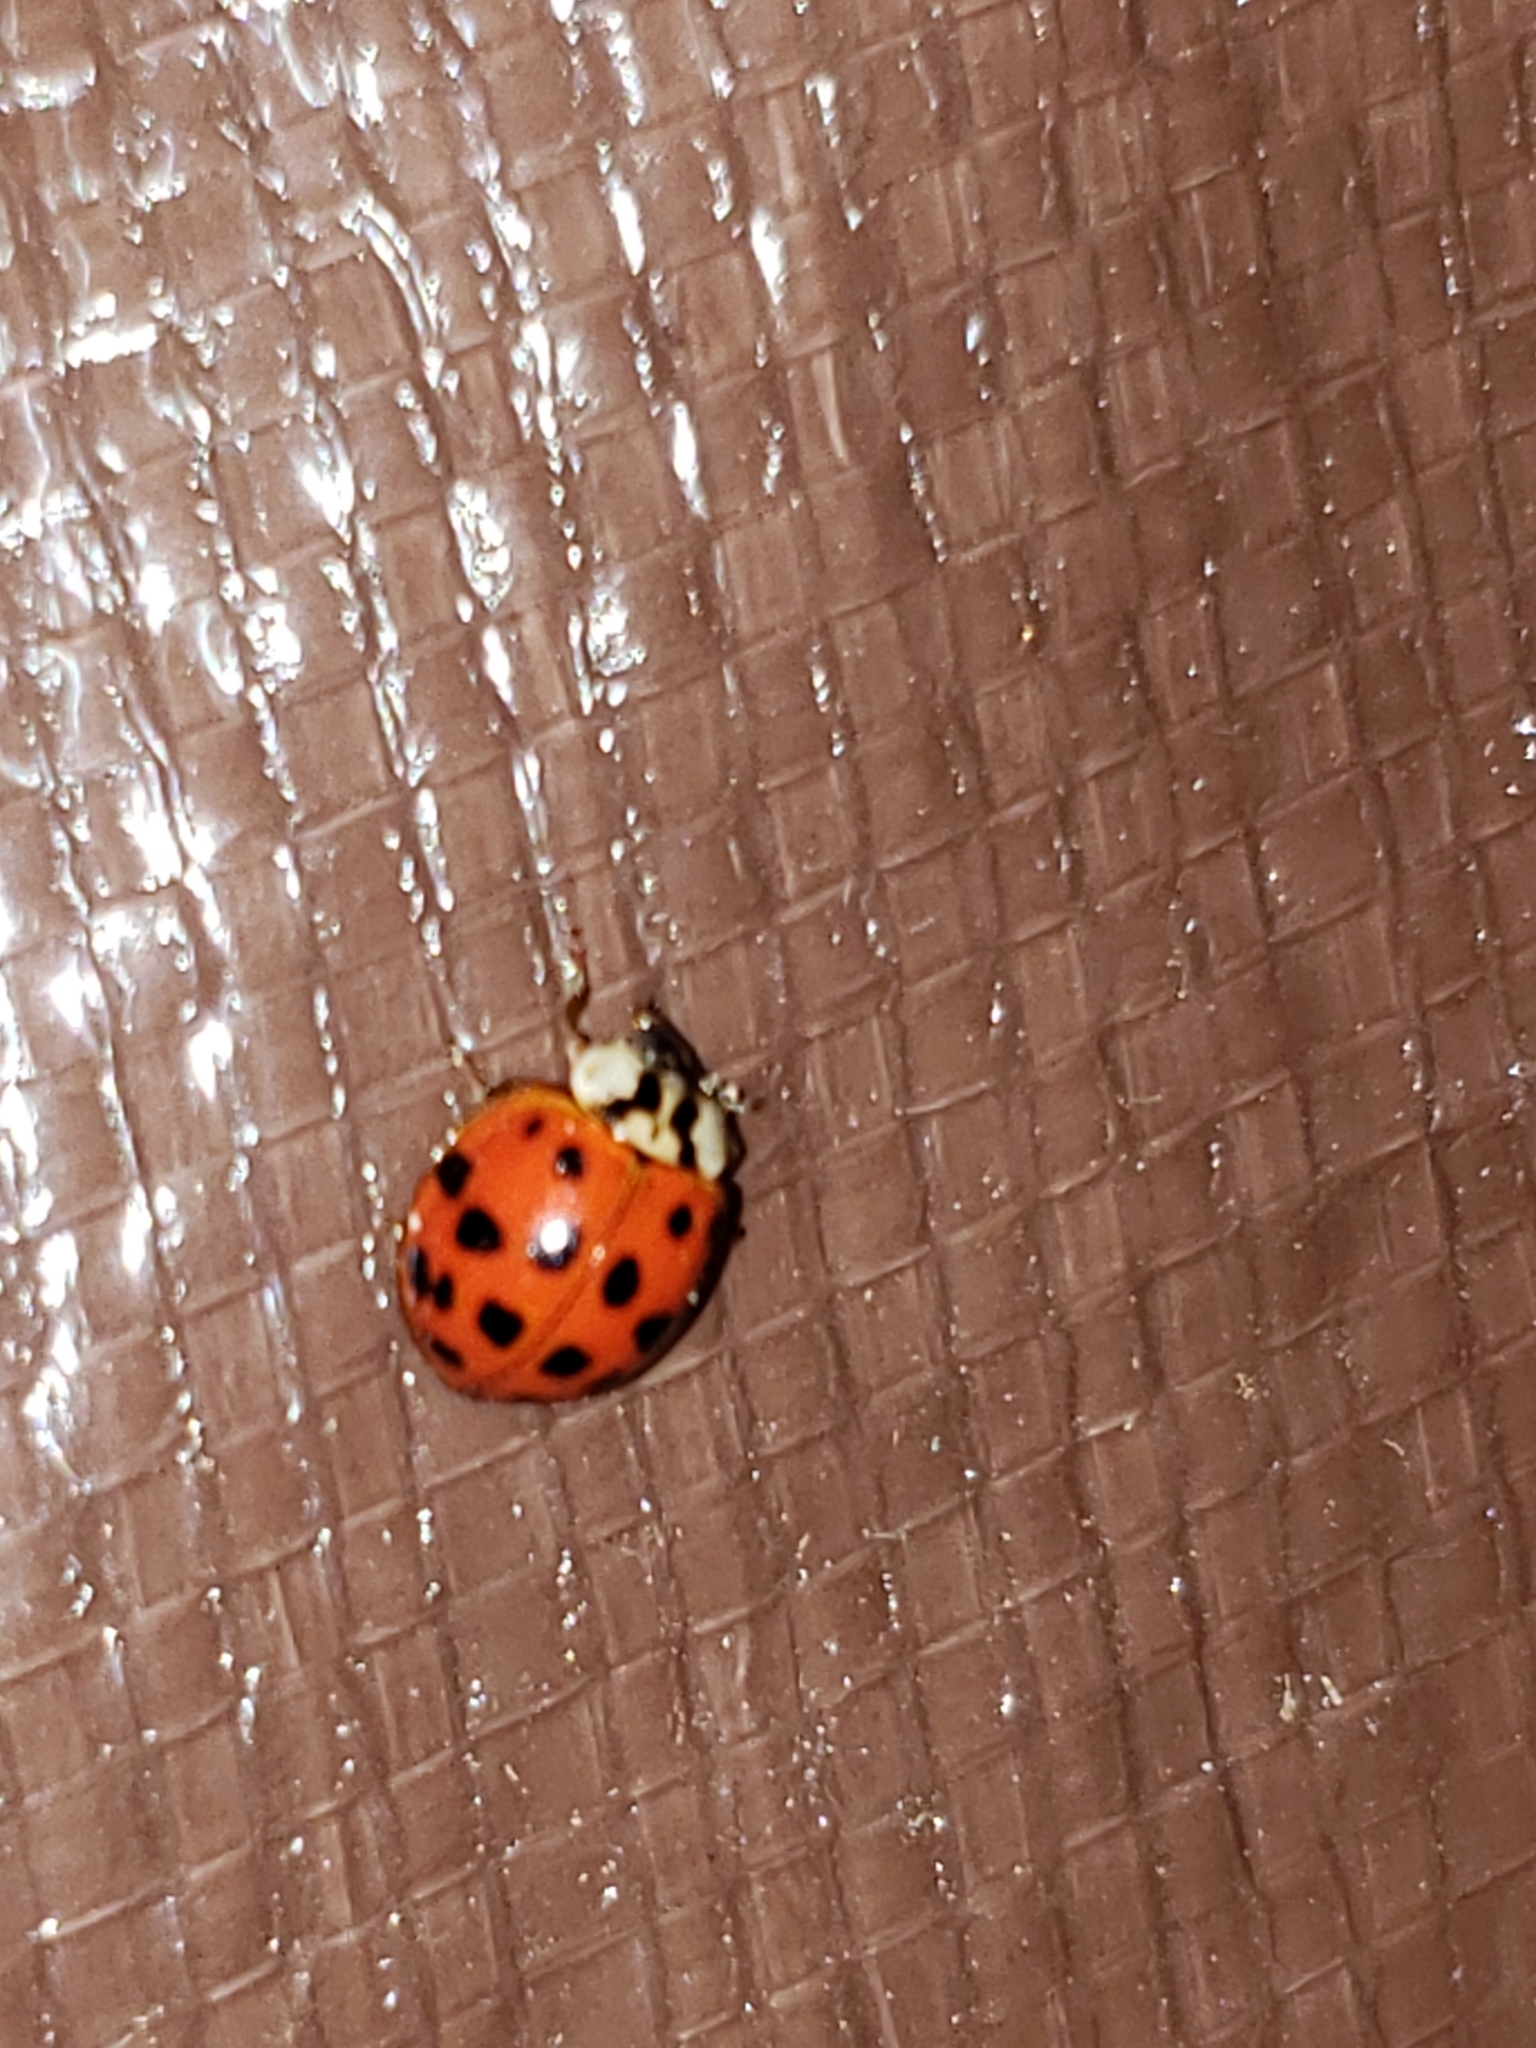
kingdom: Animalia
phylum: Arthropoda
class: Insecta
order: Coleoptera
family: Coccinellidae
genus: Harmonia
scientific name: Harmonia axyridis
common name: Harlequin ladybird
